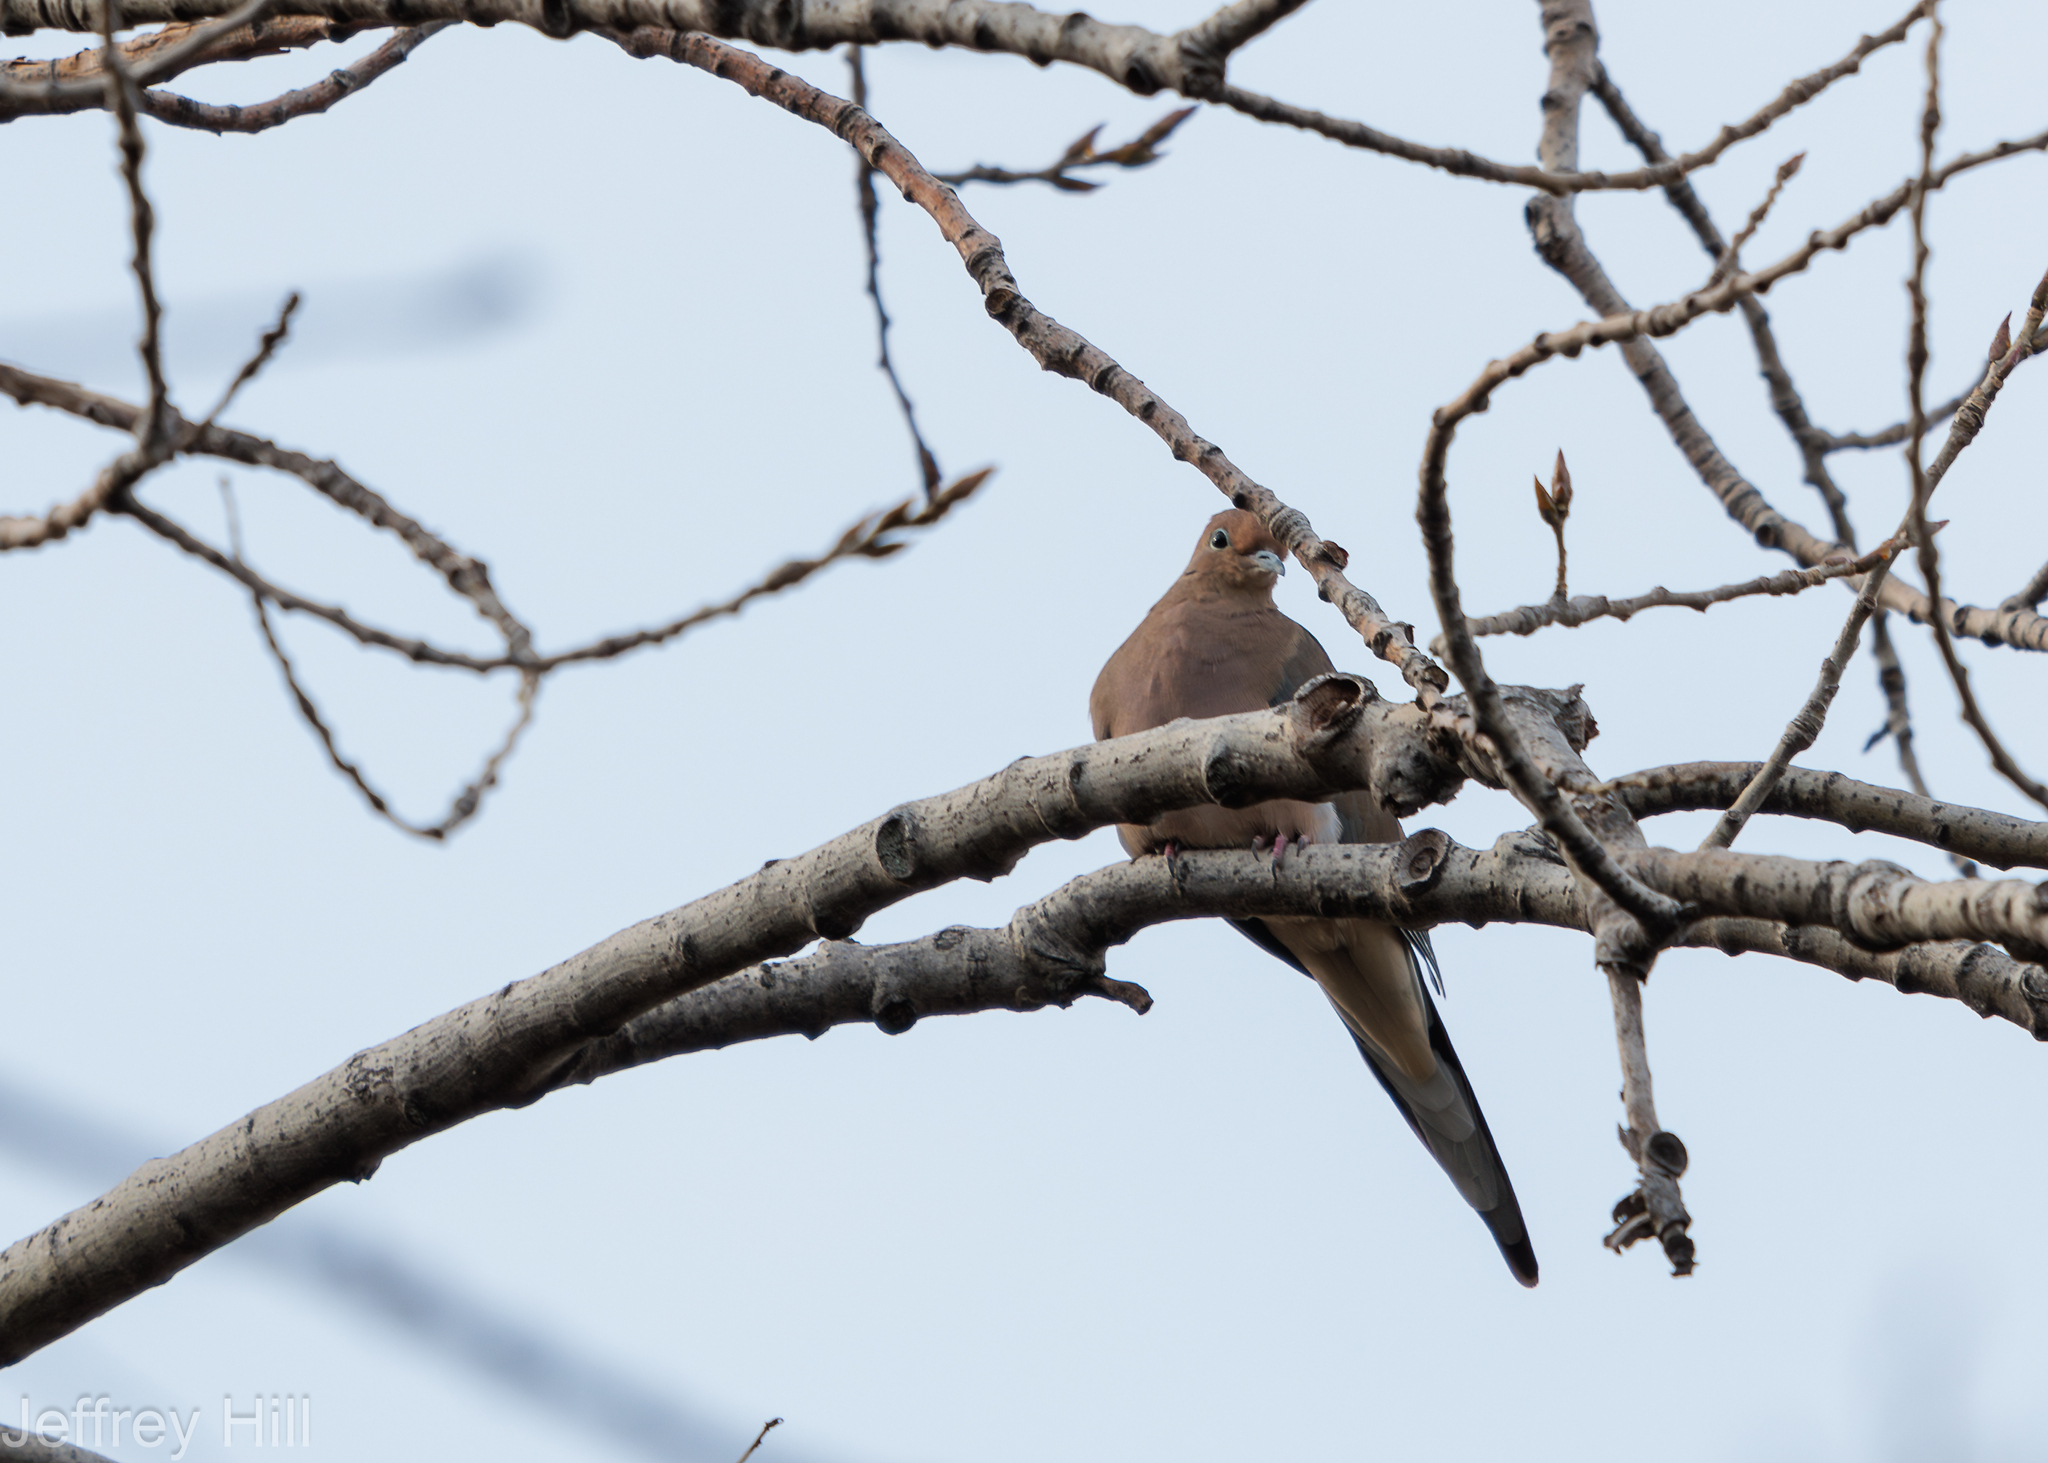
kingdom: Animalia
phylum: Chordata
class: Aves
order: Columbiformes
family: Columbidae
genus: Zenaida
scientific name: Zenaida macroura
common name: Mourning dove
